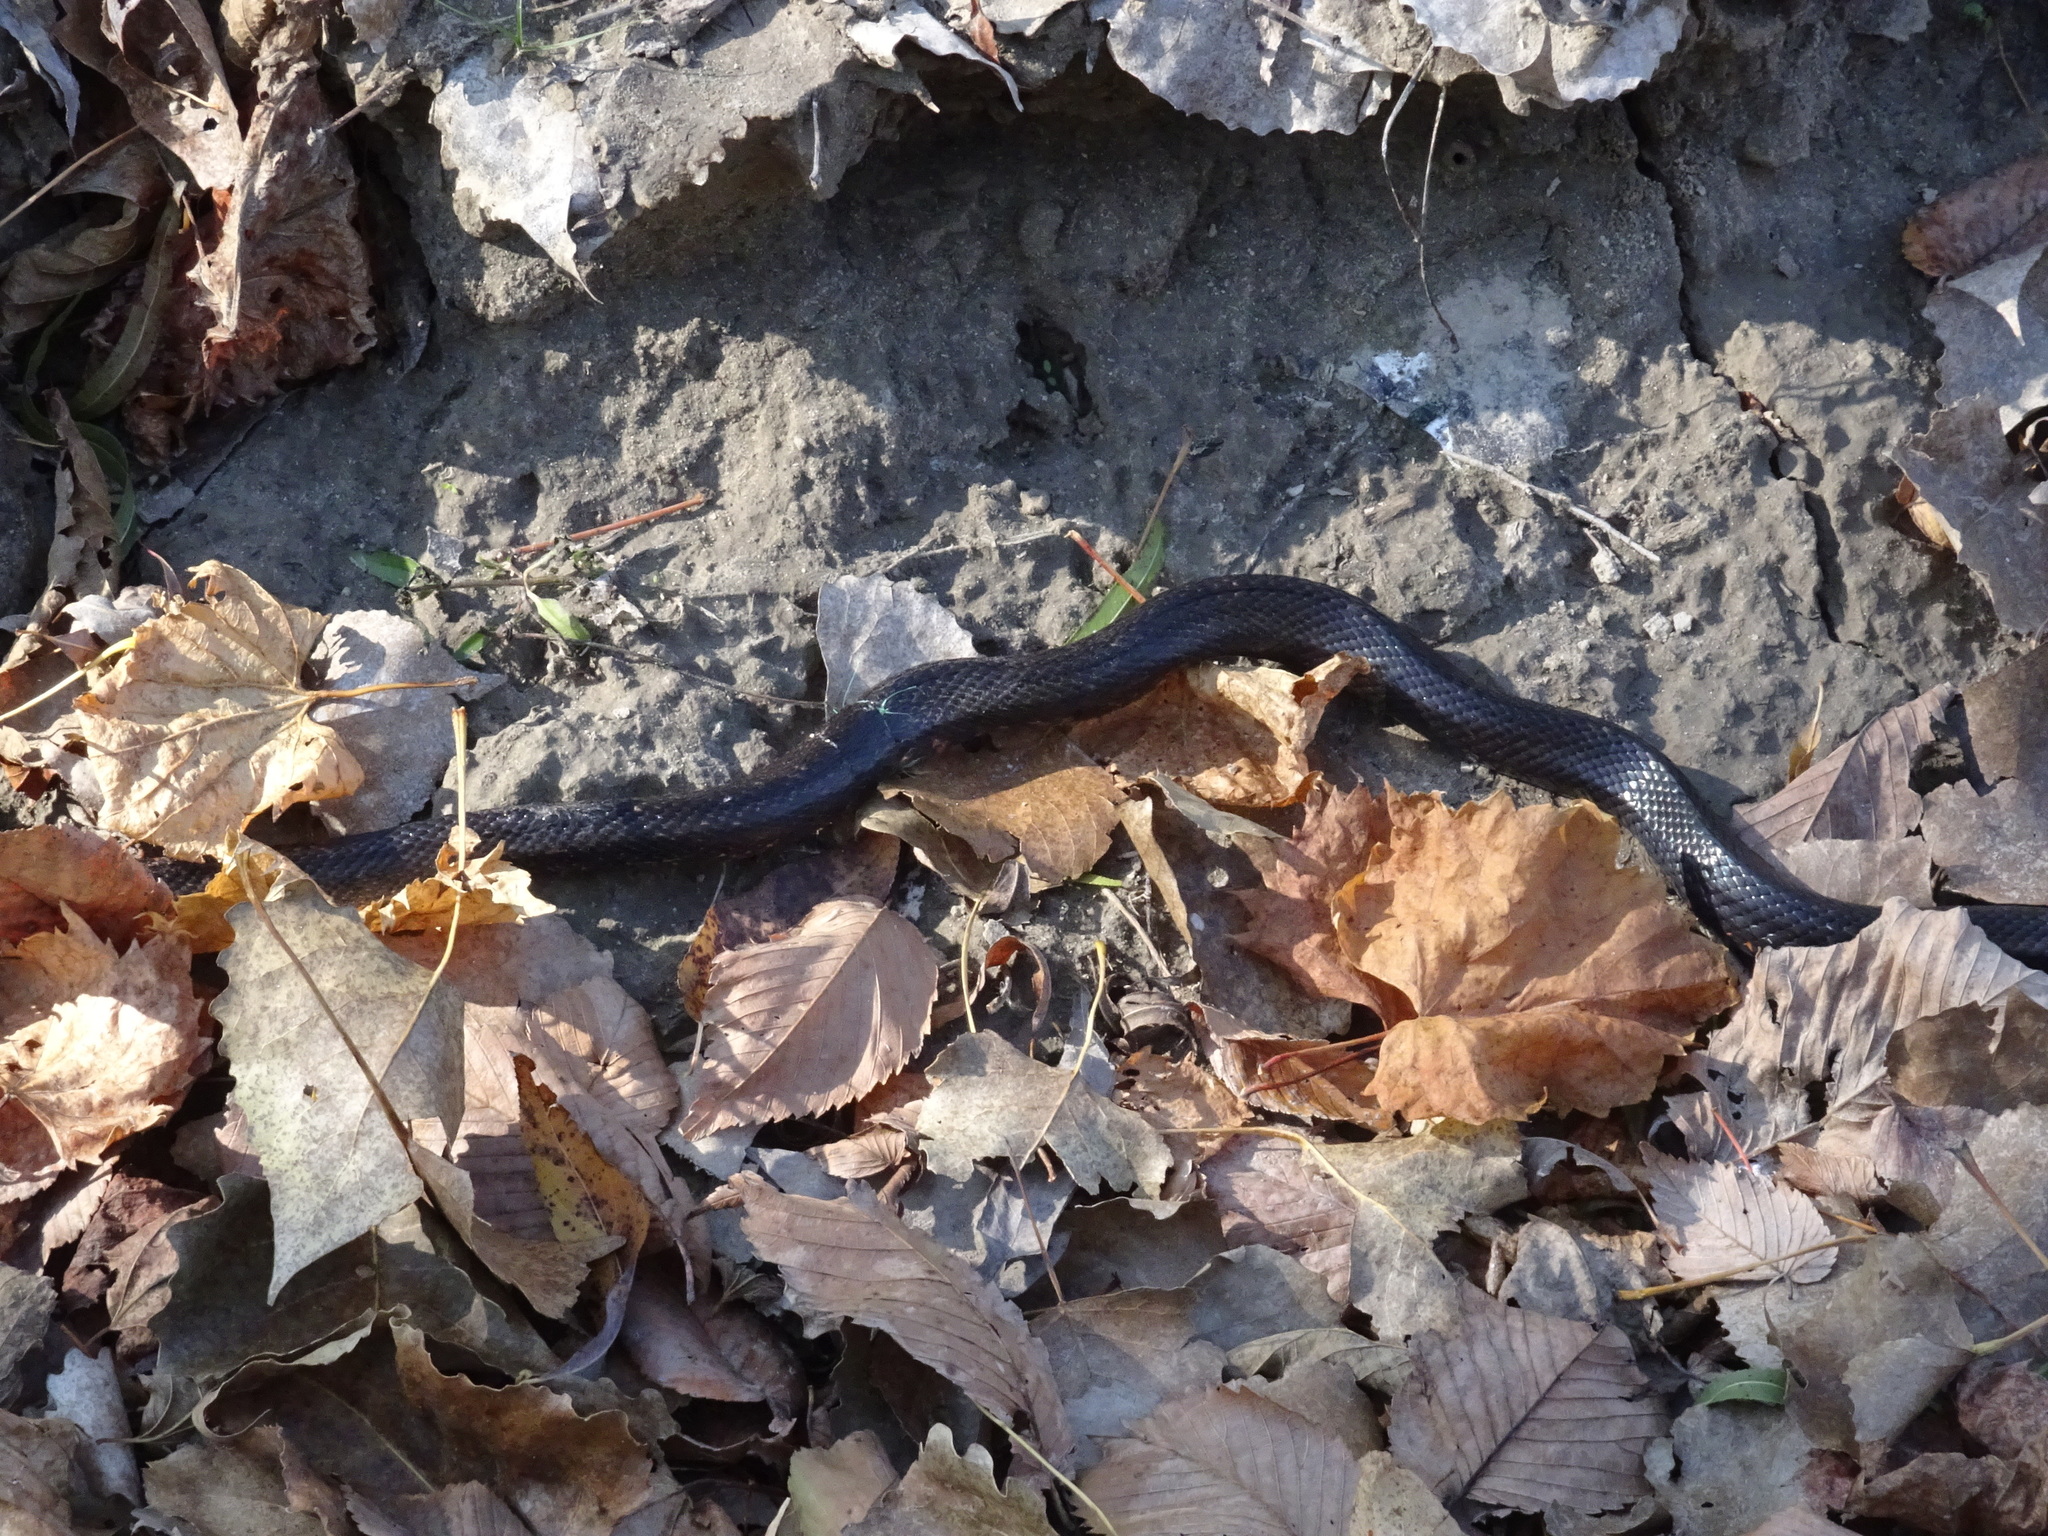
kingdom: Animalia
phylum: Chordata
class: Squamata
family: Colubridae
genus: Pantherophis
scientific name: Pantherophis obsoletus
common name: Black rat snake
